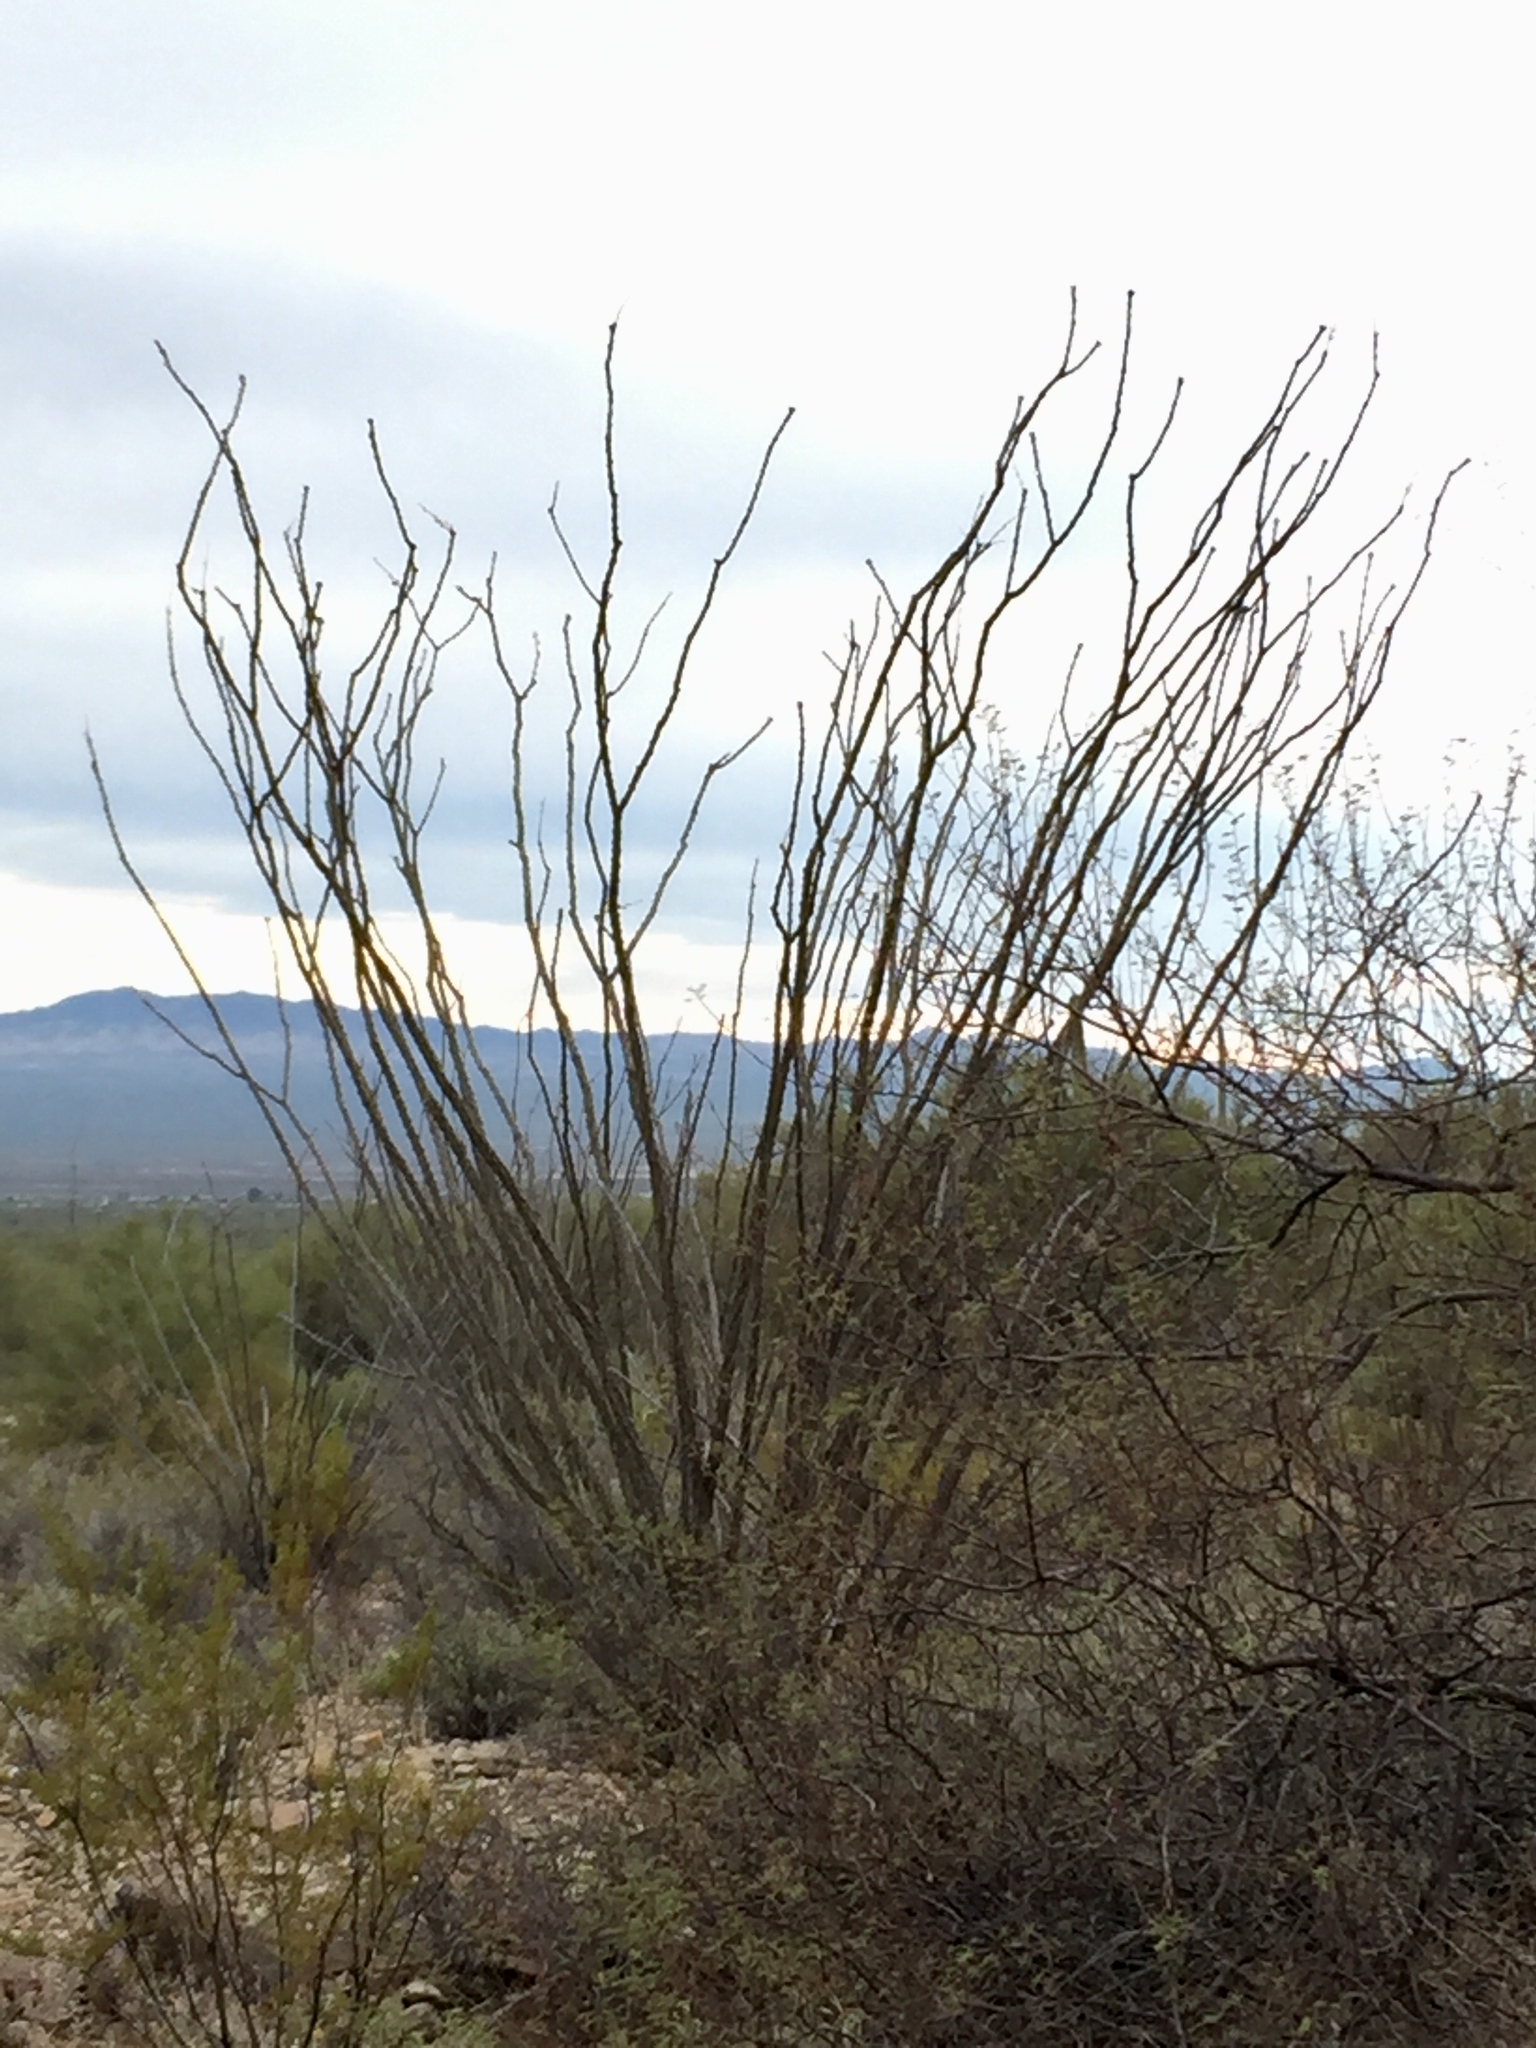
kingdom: Plantae
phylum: Tracheophyta
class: Magnoliopsida
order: Ericales
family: Fouquieriaceae
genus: Fouquieria
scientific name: Fouquieria splendens
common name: Vine-cactus
